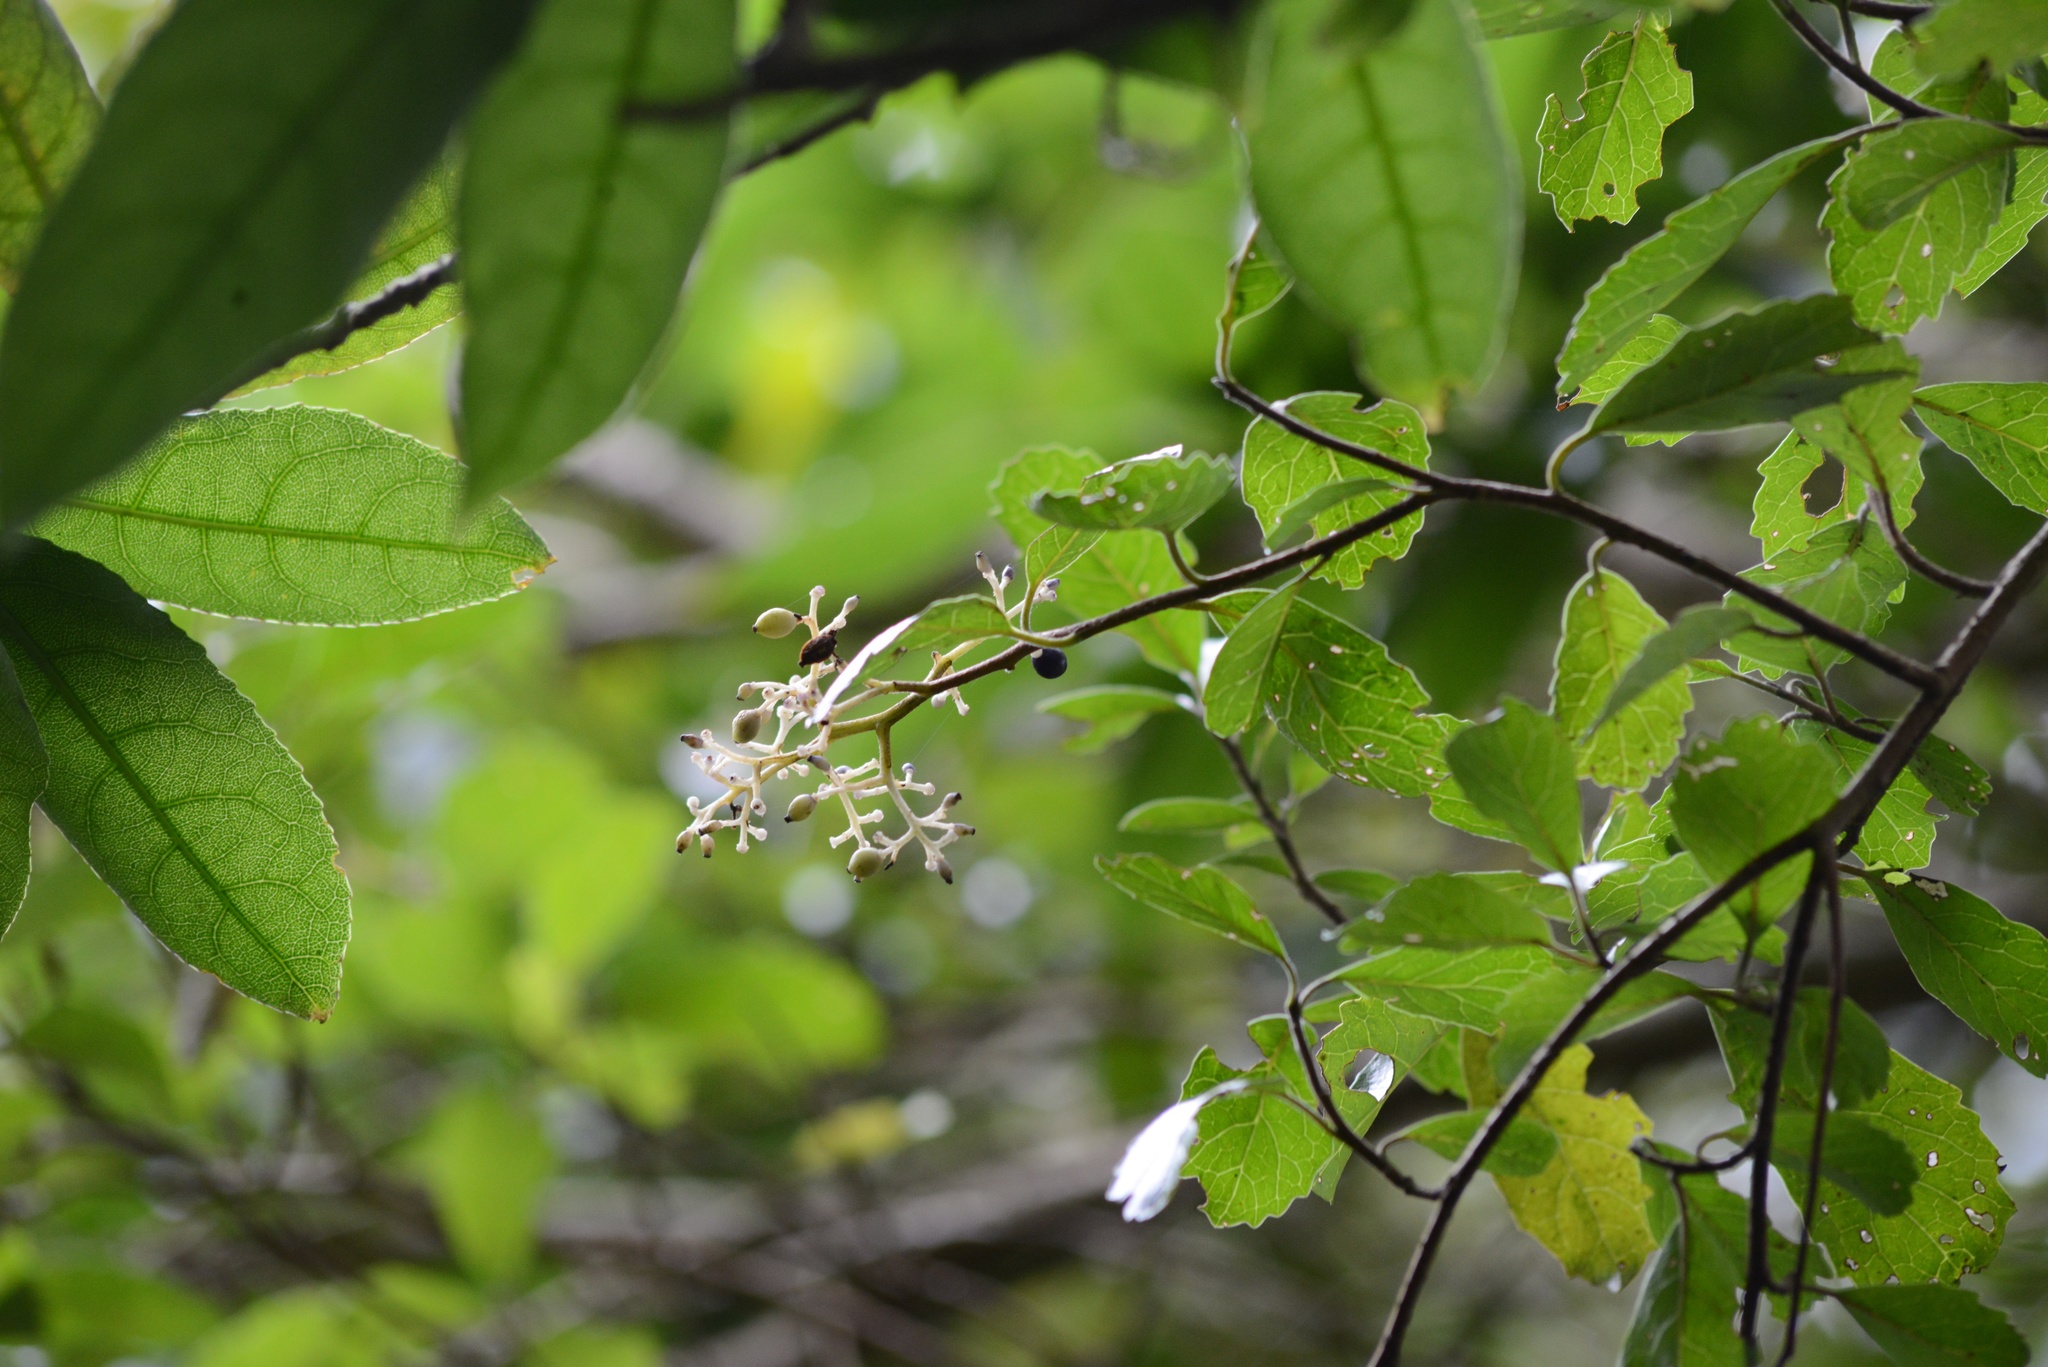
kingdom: Plantae
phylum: Tracheophyta
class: Magnoliopsida
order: Apiales
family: Pennantiaceae
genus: Pennantia
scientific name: Pennantia corymbosa
